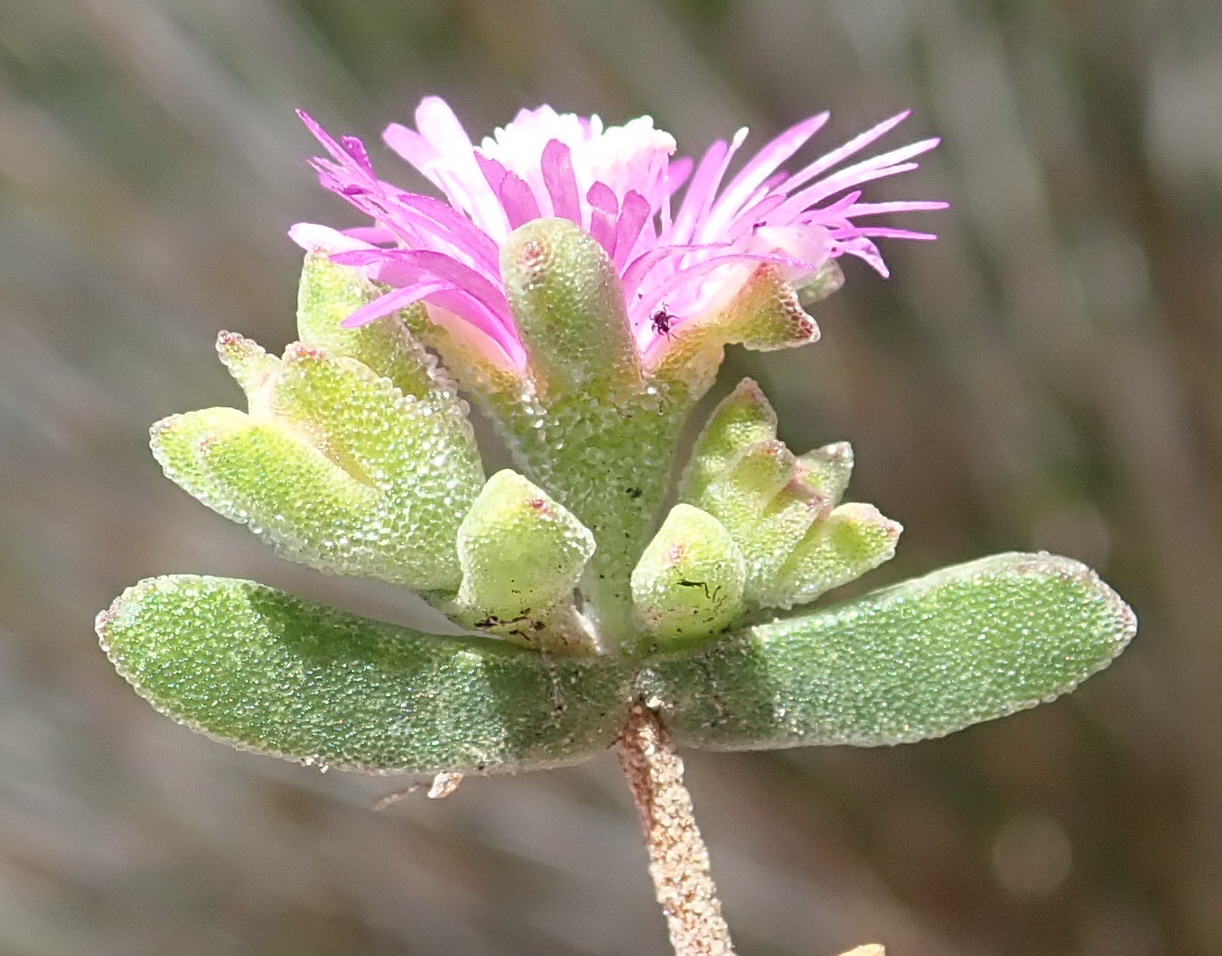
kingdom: Plantae
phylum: Tracheophyta
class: Magnoliopsida
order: Caryophyllales
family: Aizoaceae
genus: Drosanthemum
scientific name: Drosanthemum calcareum
